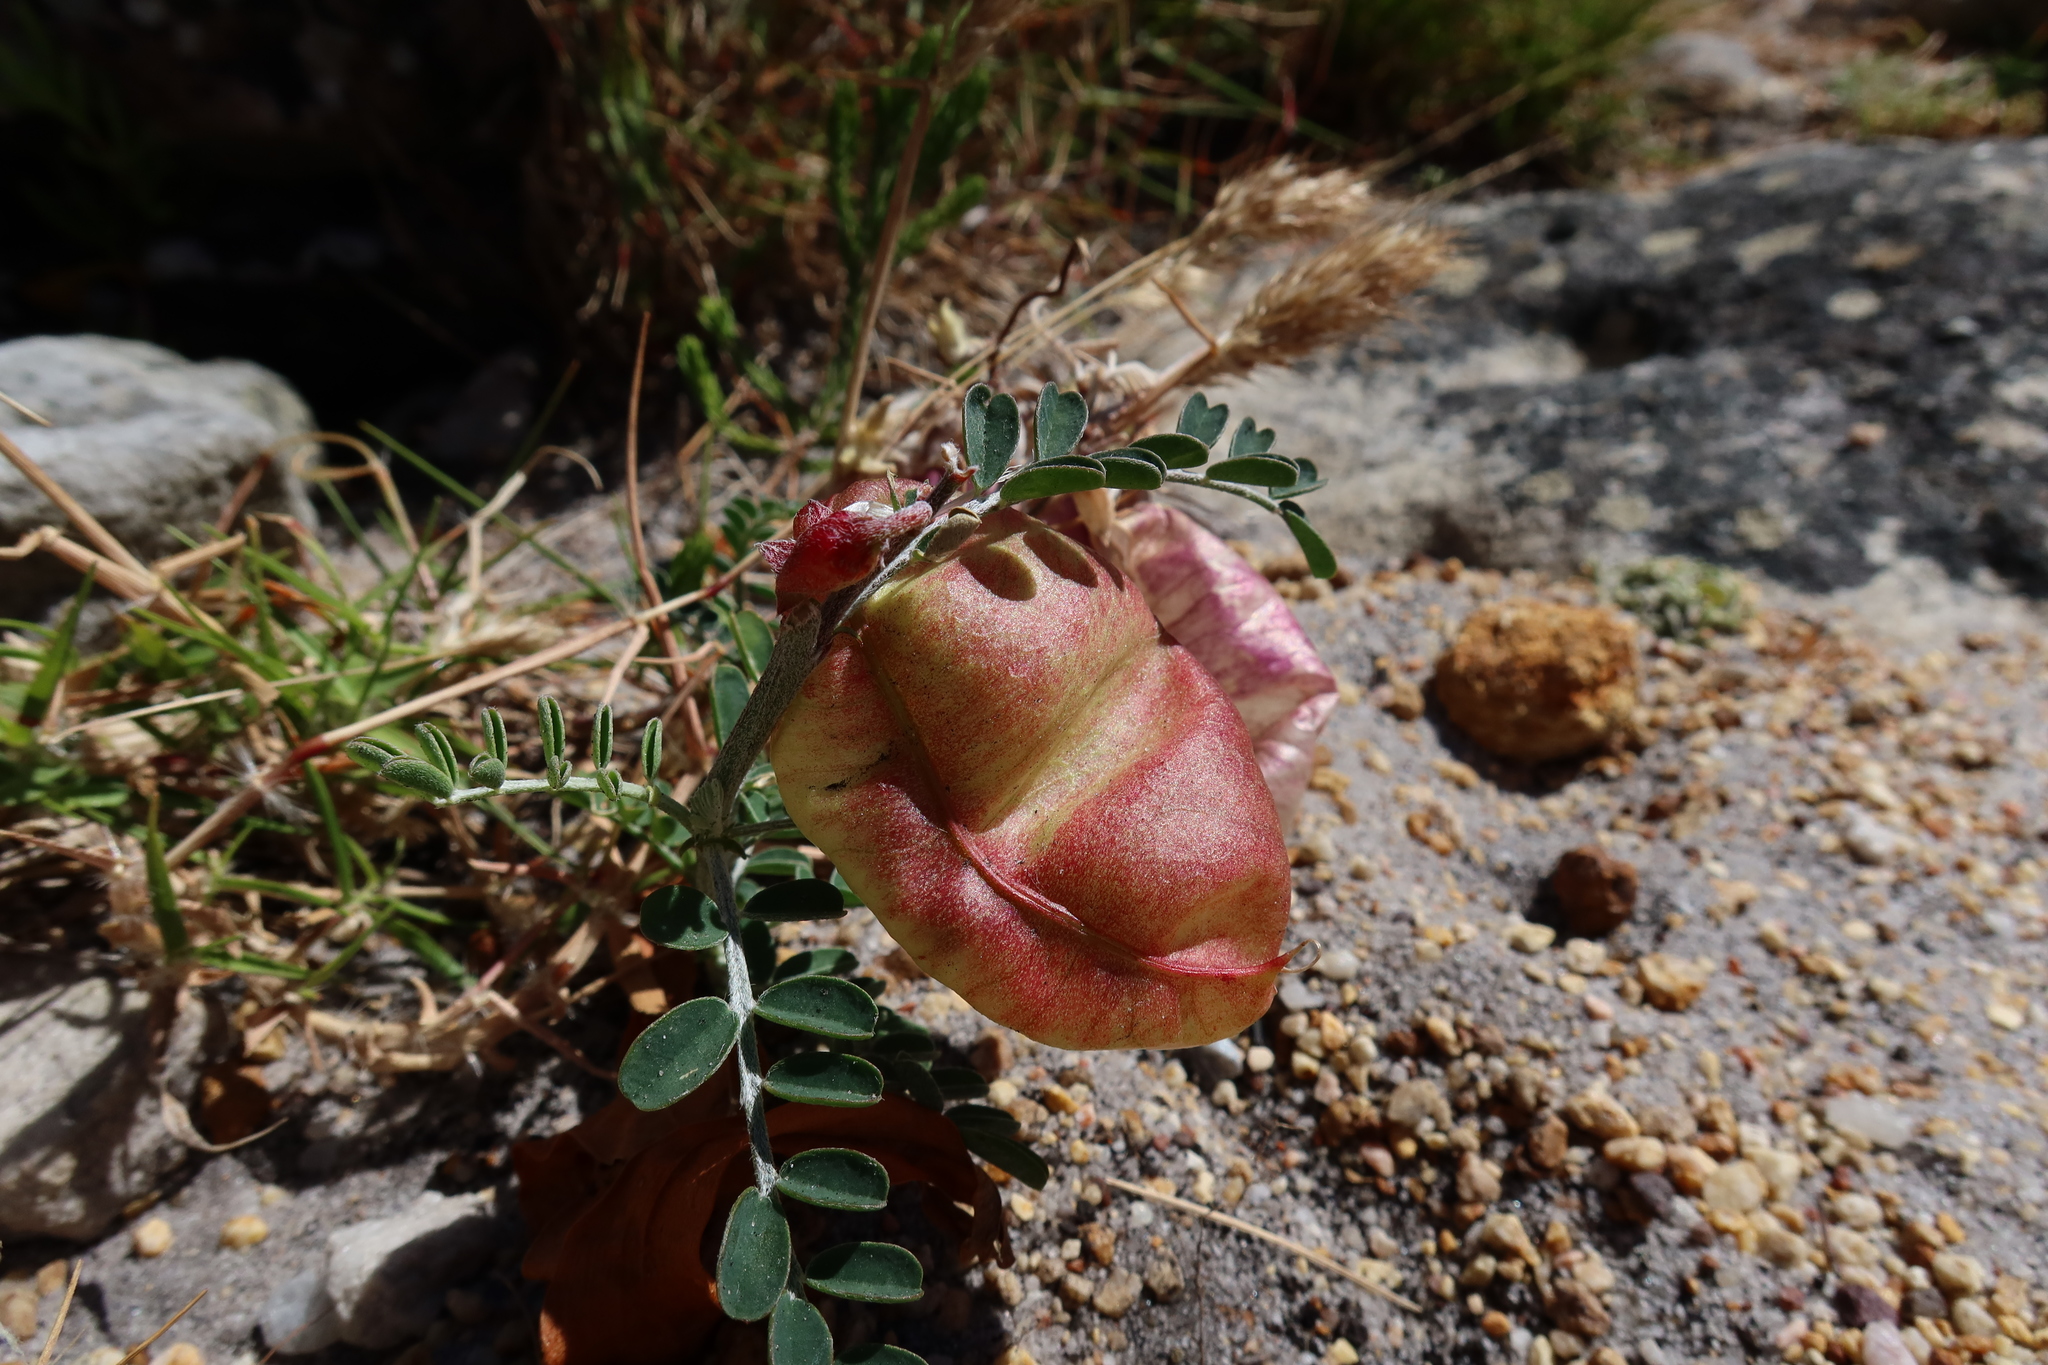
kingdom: Plantae
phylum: Tracheophyta
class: Magnoliopsida
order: Fabales
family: Fabaceae
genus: Lessertia
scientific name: Lessertia frutescens
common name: Balloon-pea
